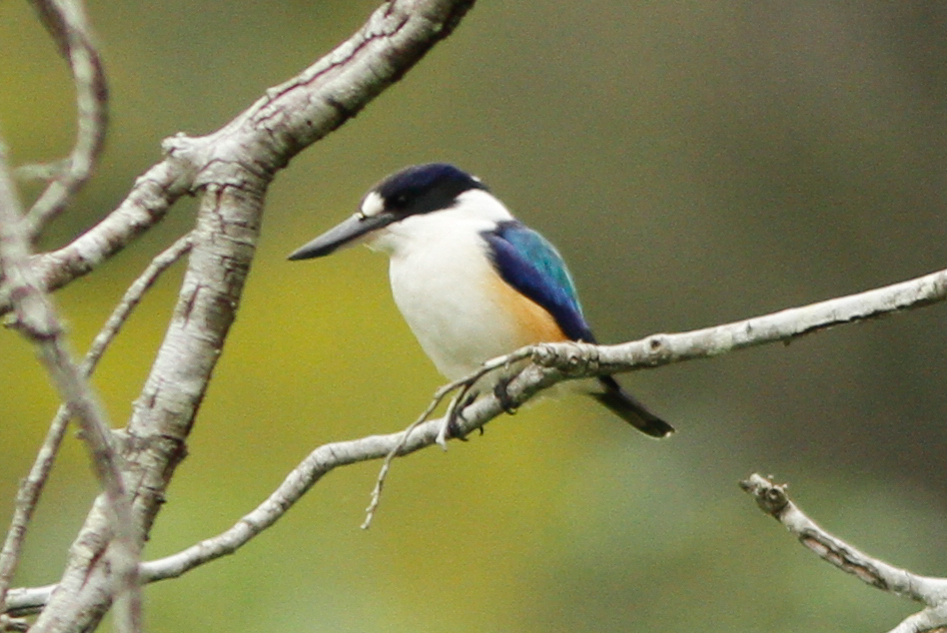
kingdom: Animalia
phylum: Chordata
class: Aves
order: Coraciiformes
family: Alcedinidae
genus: Todiramphus
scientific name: Todiramphus macleayii
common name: Forest kingfisher
